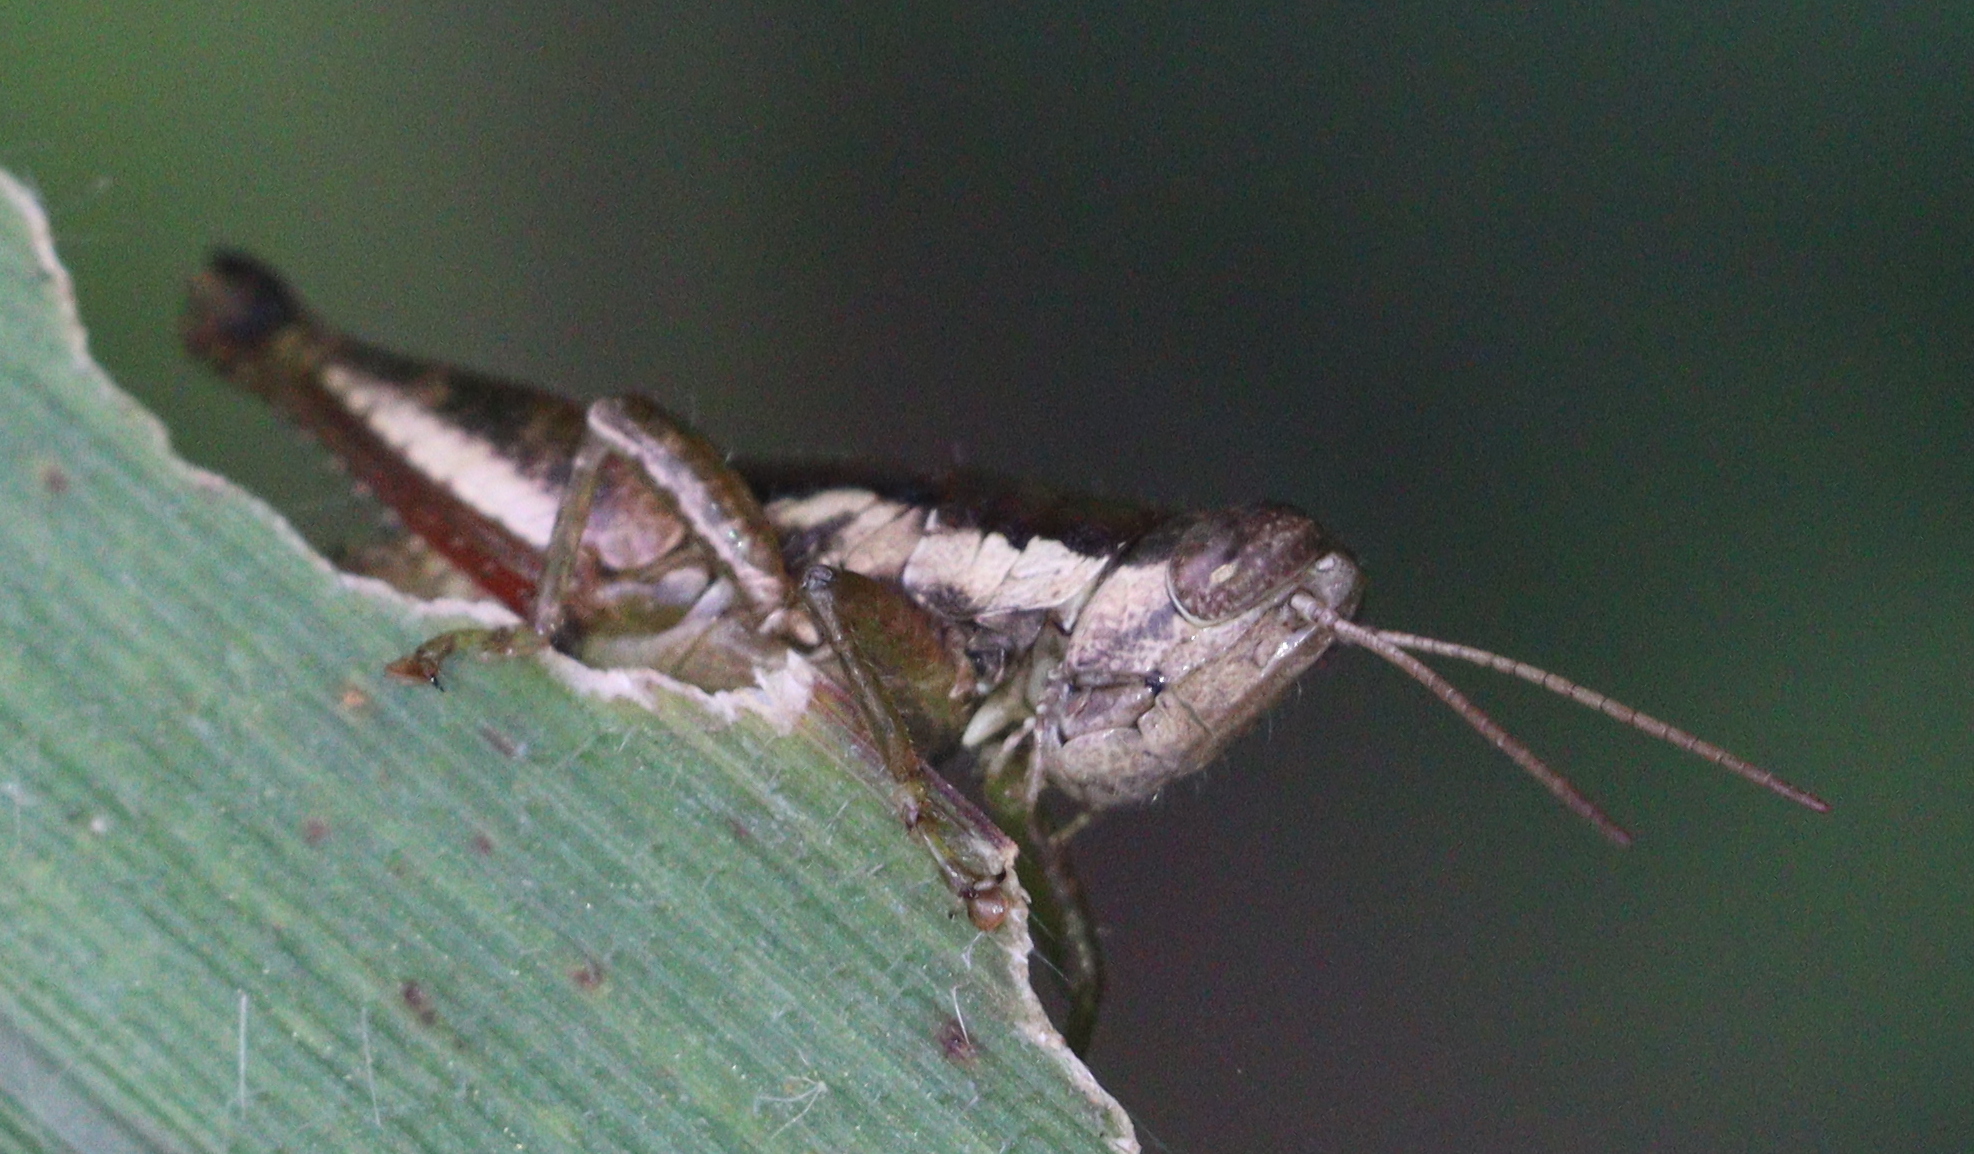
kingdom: Animalia
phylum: Arthropoda
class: Insecta
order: Orthoptera
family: Acrididae
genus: Pseudoxya
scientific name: Pseudoxya diminuta
